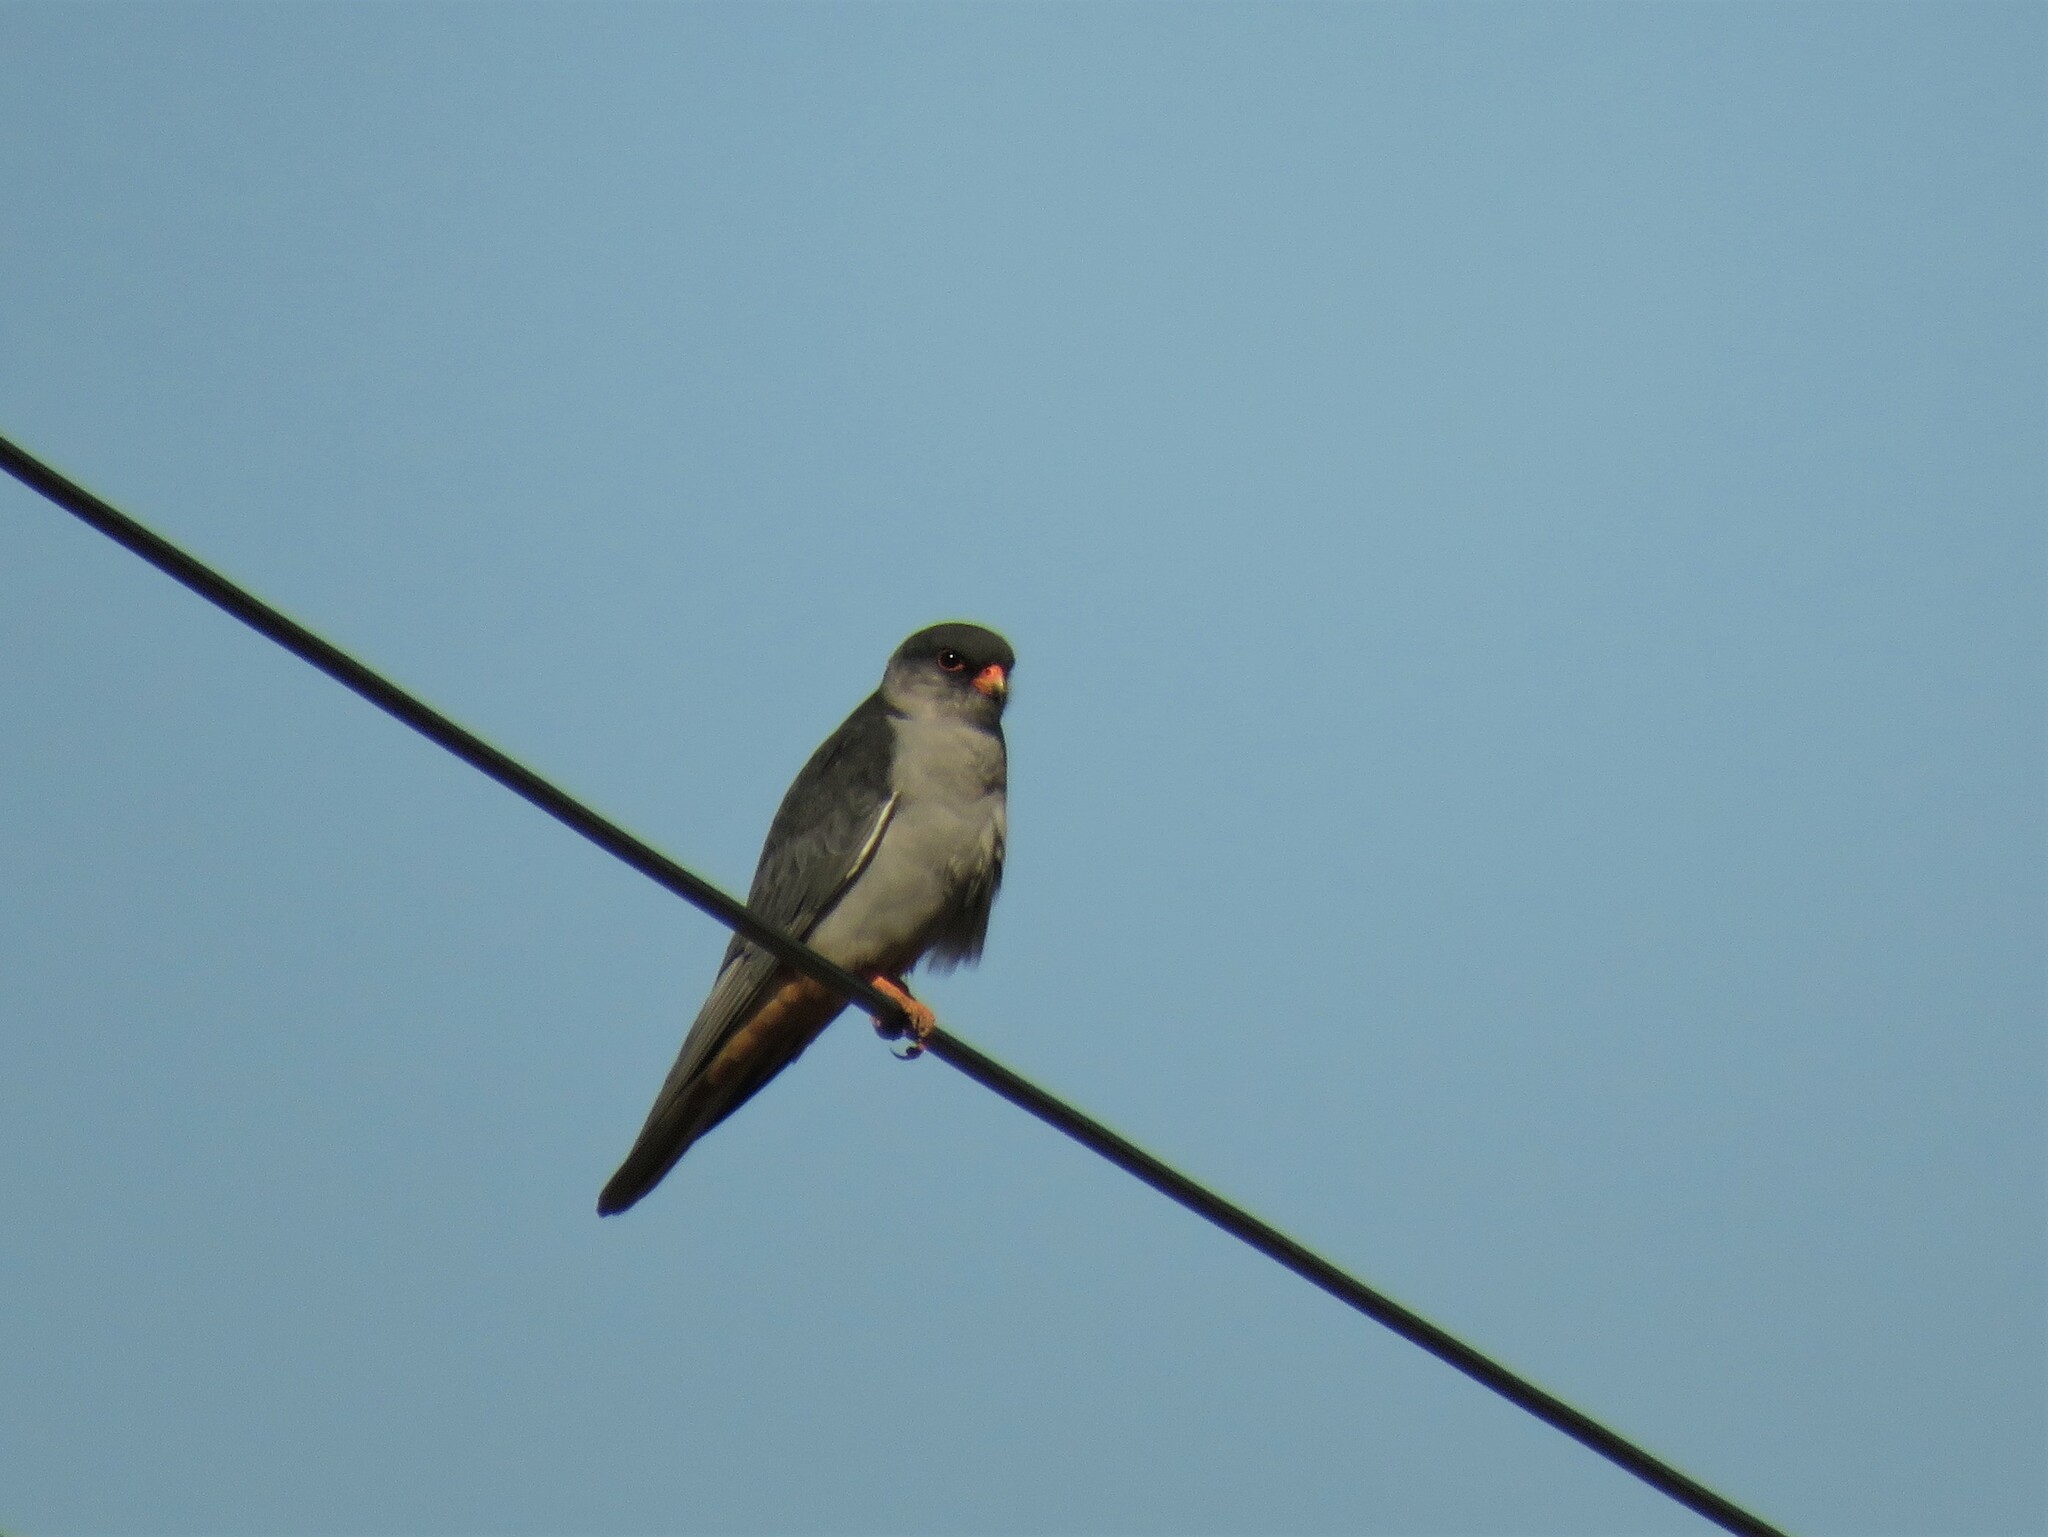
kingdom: Animalia
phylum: Chordata
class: Aves
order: Falconiformes
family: Falconidae
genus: Falco
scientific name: Falco amurensis
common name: Amur falcon
